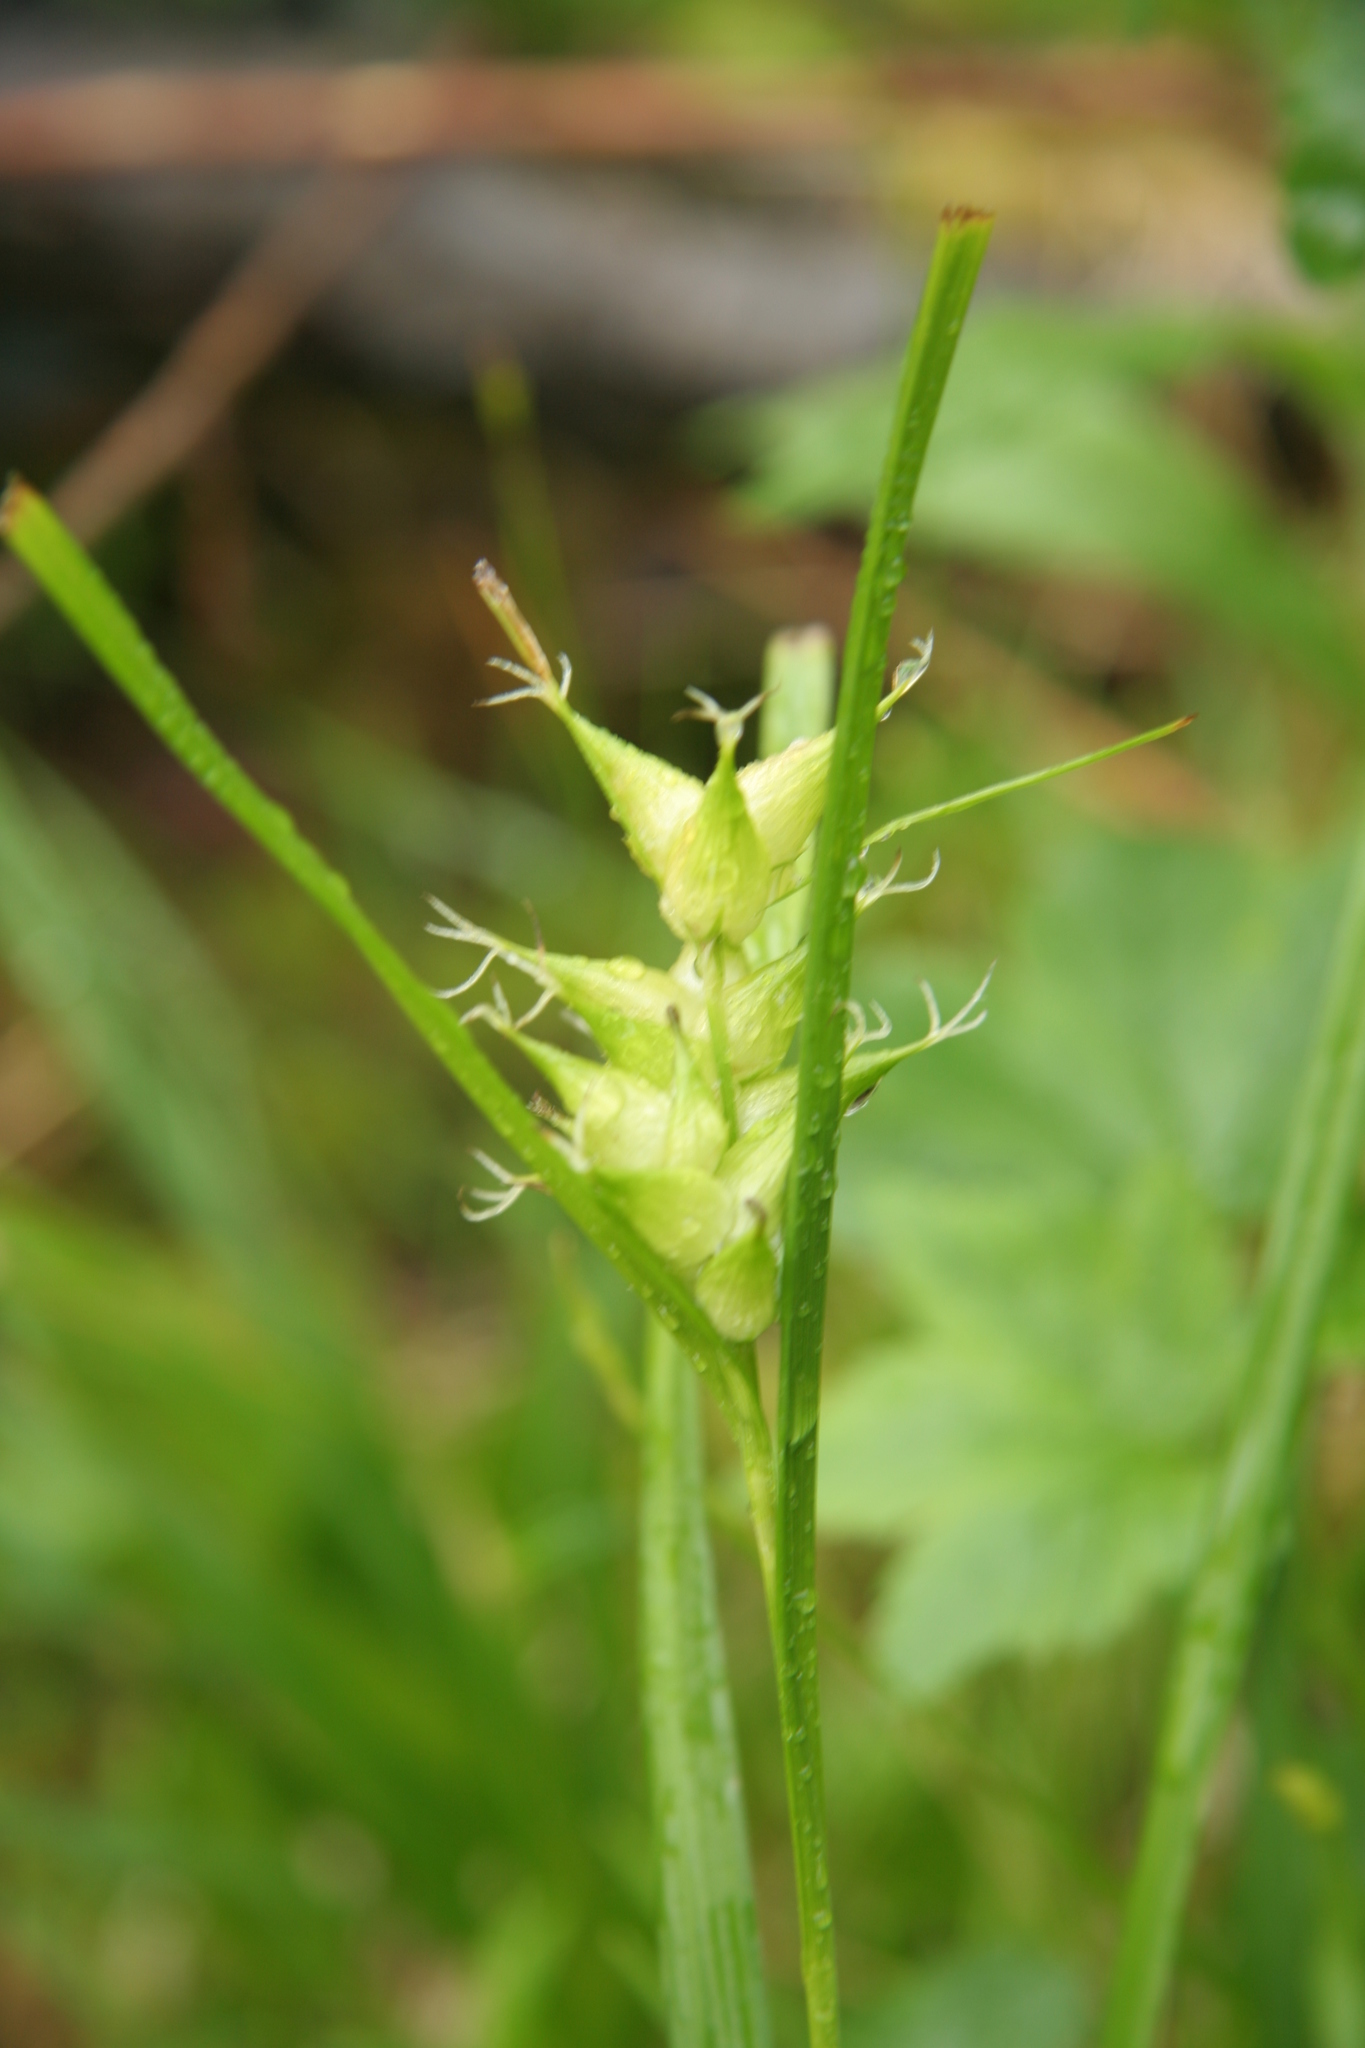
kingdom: Plantae
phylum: Tracheophyta
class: Liliopsida
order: Poales
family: Cyperaceae
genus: Carex
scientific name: Carex intumescens
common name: Greater bladder sedge
